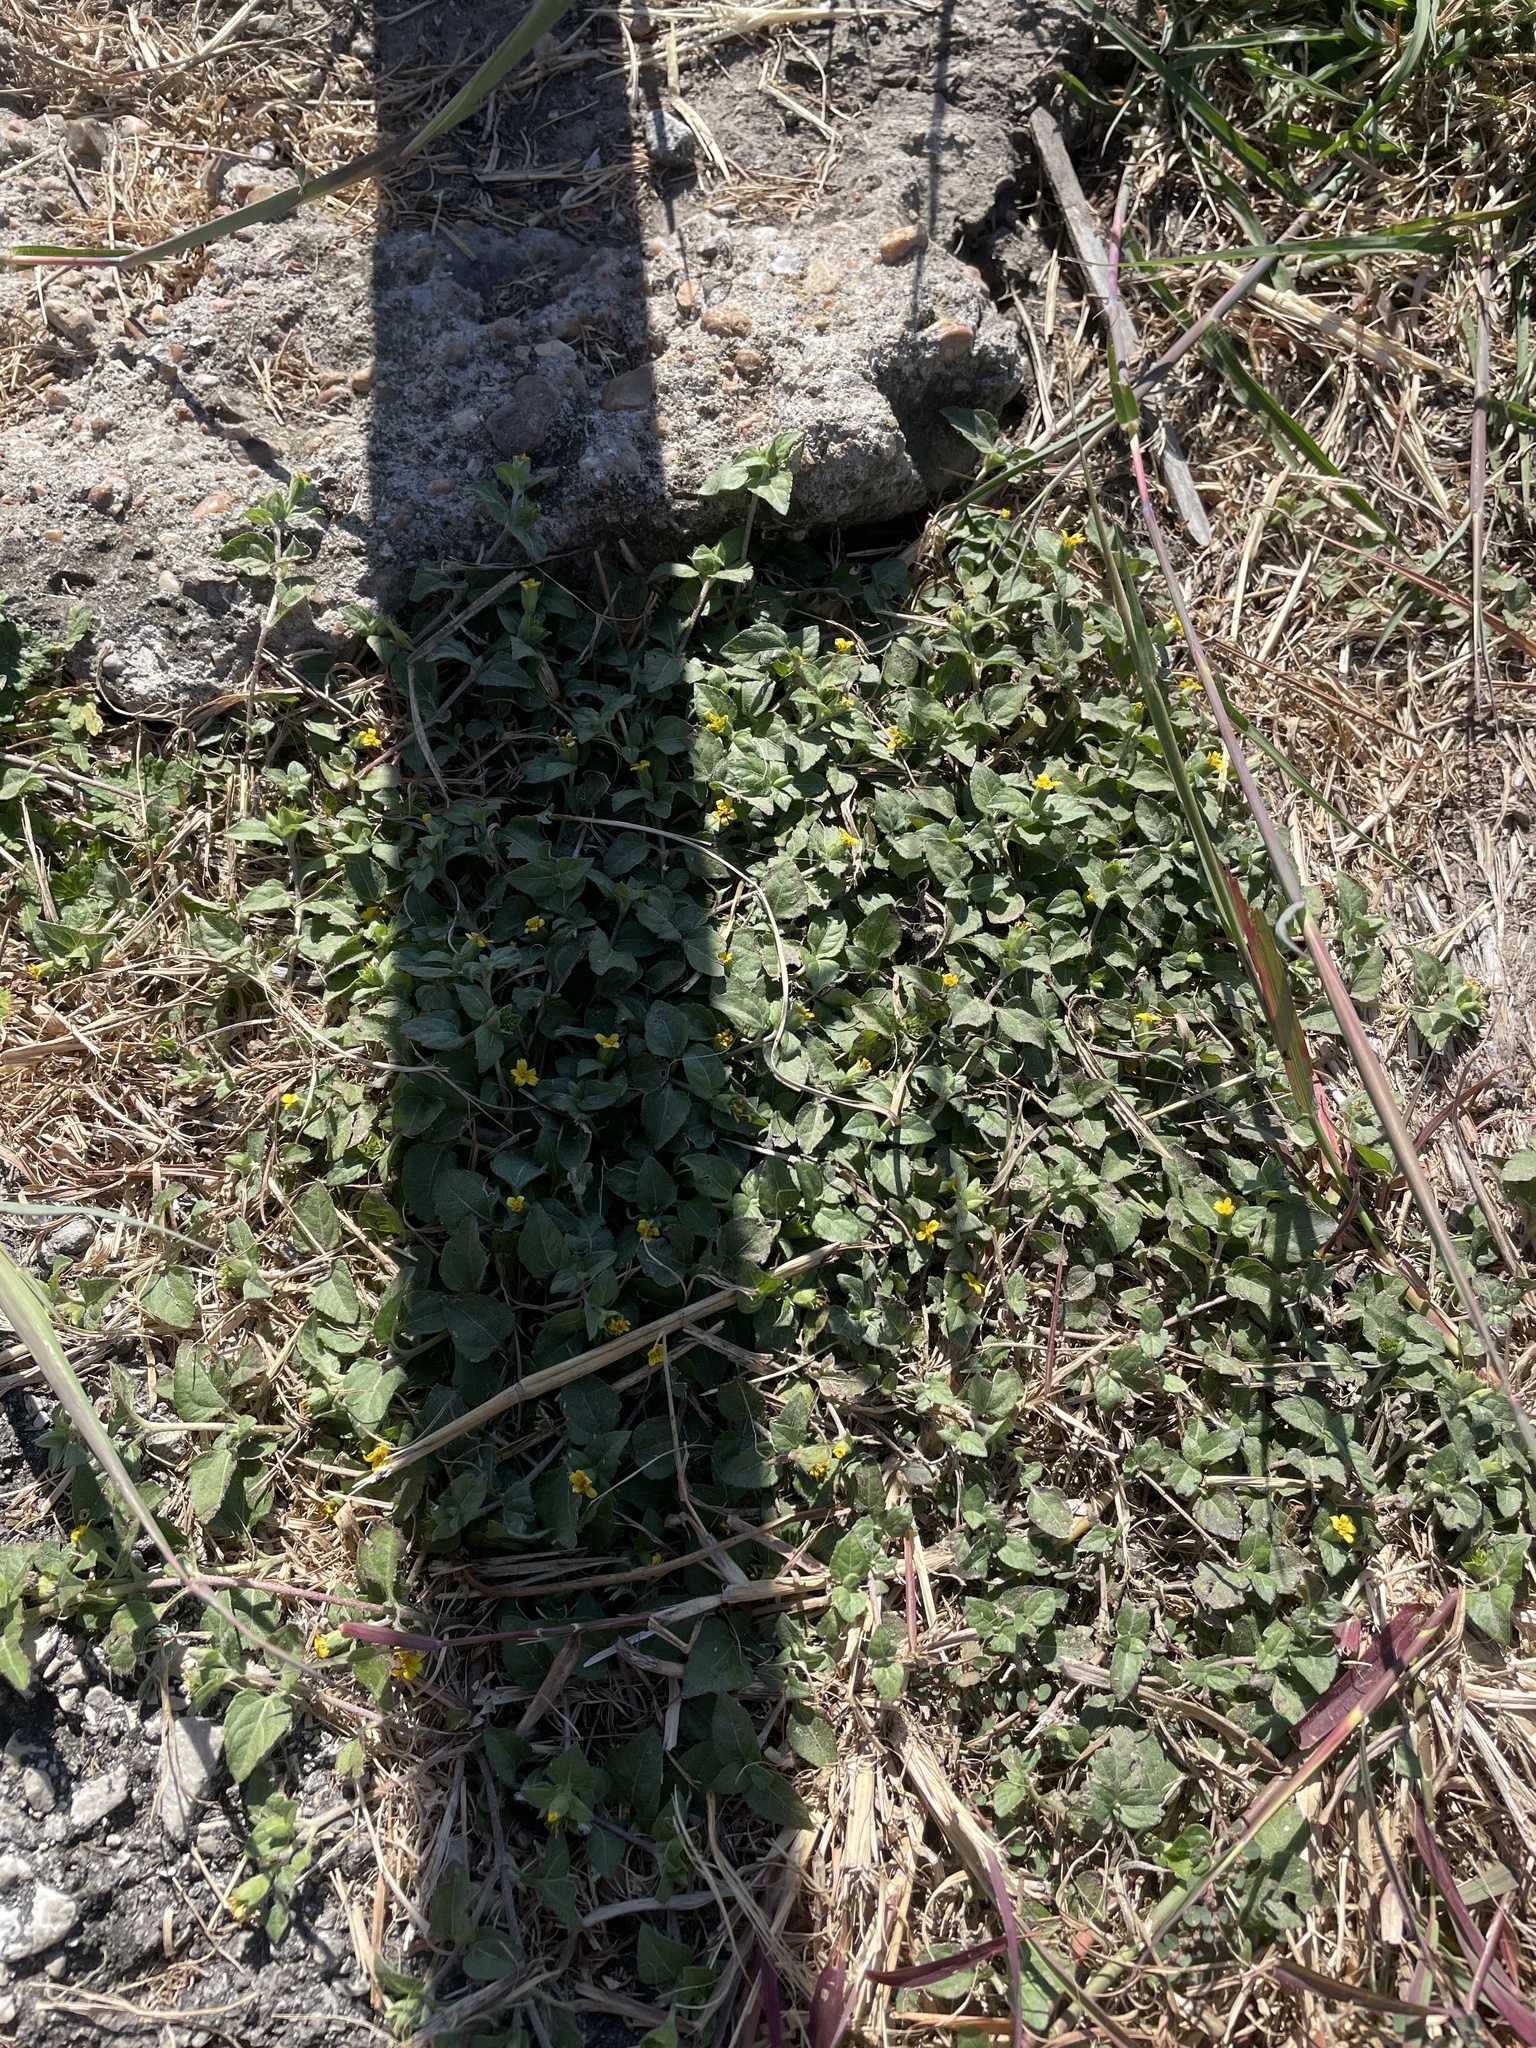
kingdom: Plantae
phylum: Tracheophyta
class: Magnoliopsida
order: Asterales
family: Asteraceae
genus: Calyptocarpus
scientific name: Calyptocarpus vialis
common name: Straggler daisy
